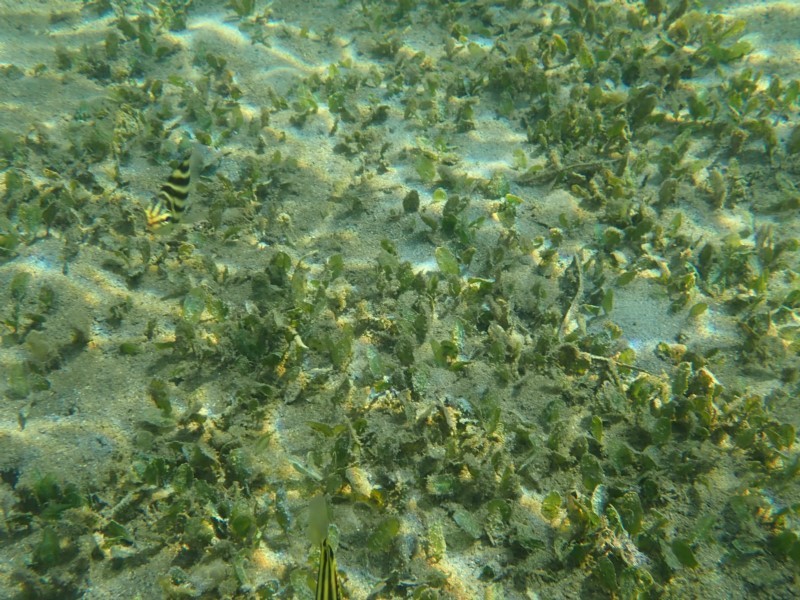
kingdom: Plantae
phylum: Tracheophyta
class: Liliopsida
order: Alismatales
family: Hydrocharitaceae
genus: Halophila
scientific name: Halophila ovalis
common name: Species code: ho
